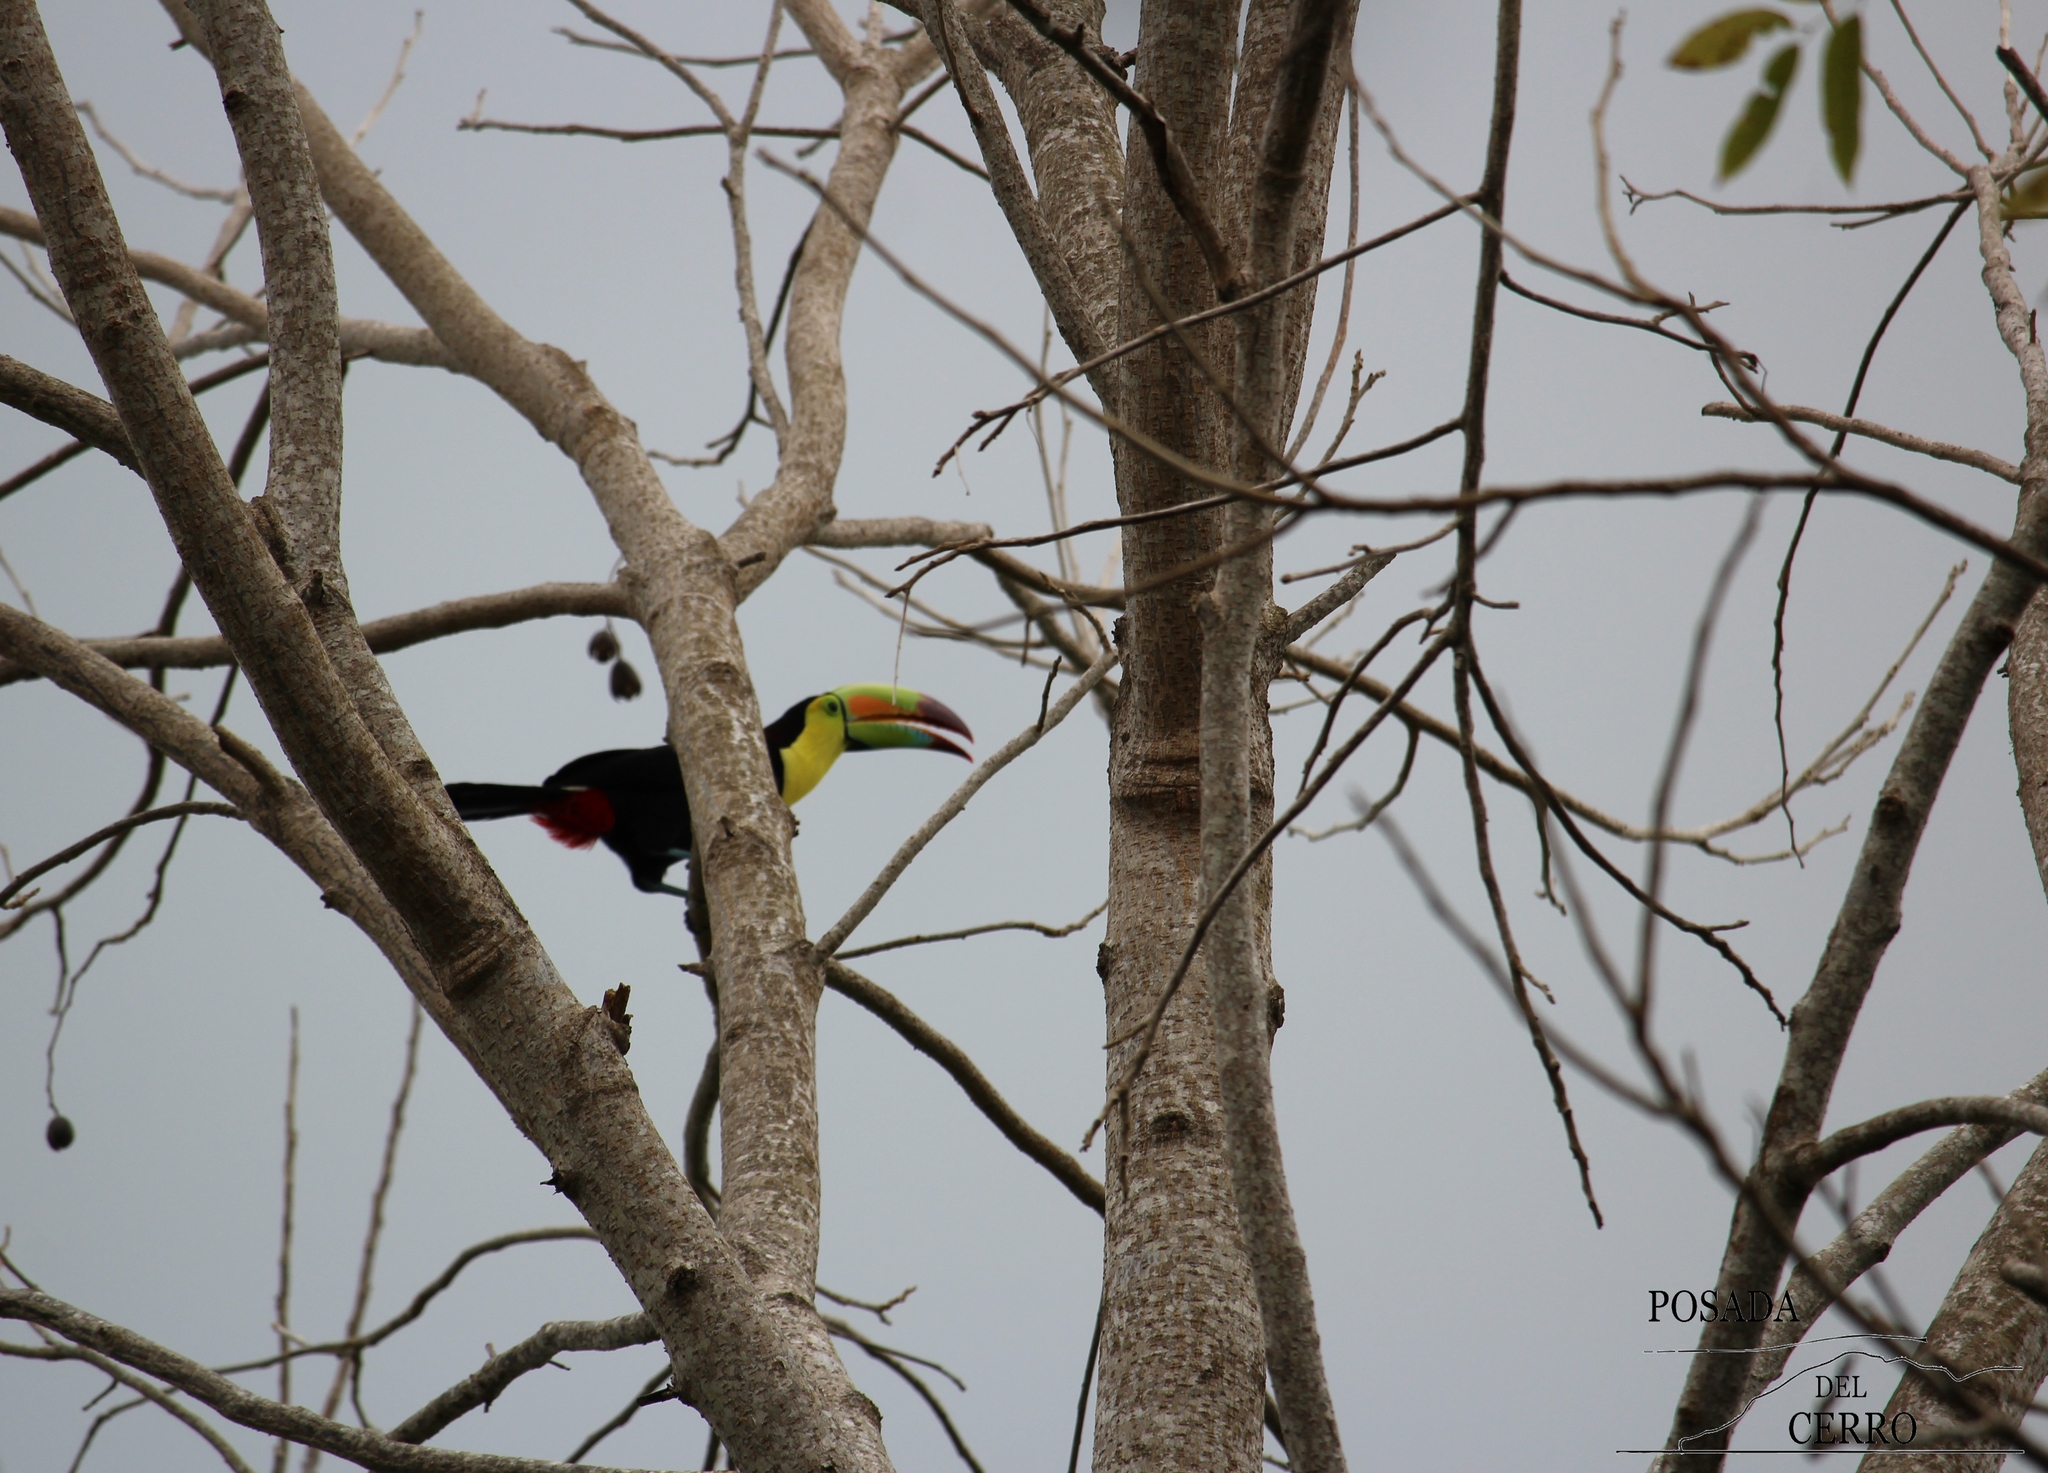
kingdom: Animalia
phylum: Chordata
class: Aves
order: Piciformes
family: Ramphastidae
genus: Ramphastos
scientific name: Ramphastos sulfuratus
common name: Keel-billed toucan
